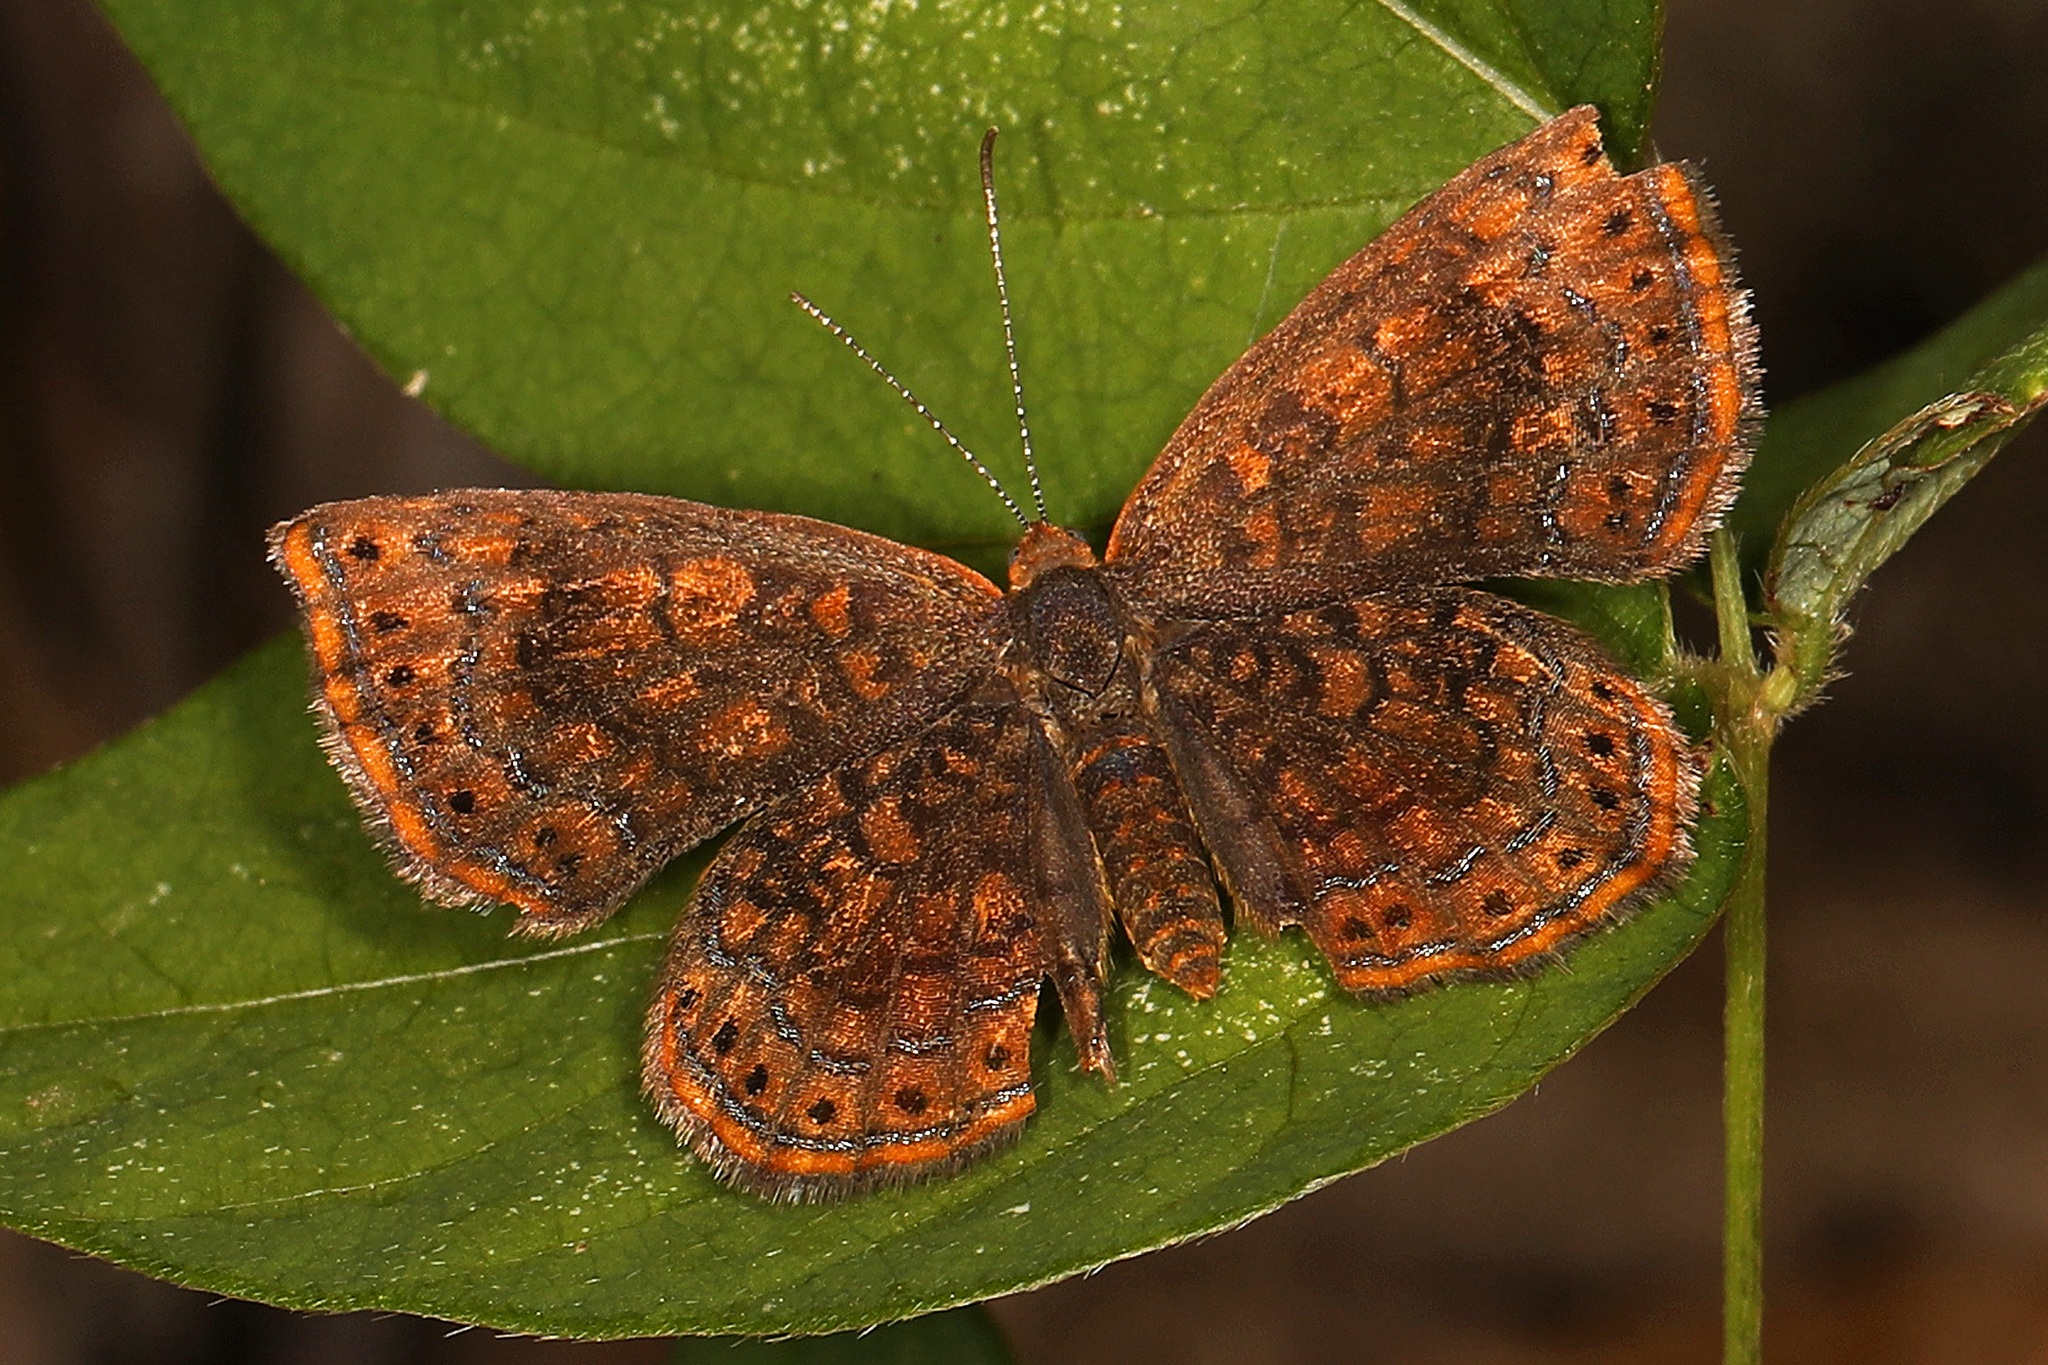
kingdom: Animalia
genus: Calephelis
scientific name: Calephelis borealis
